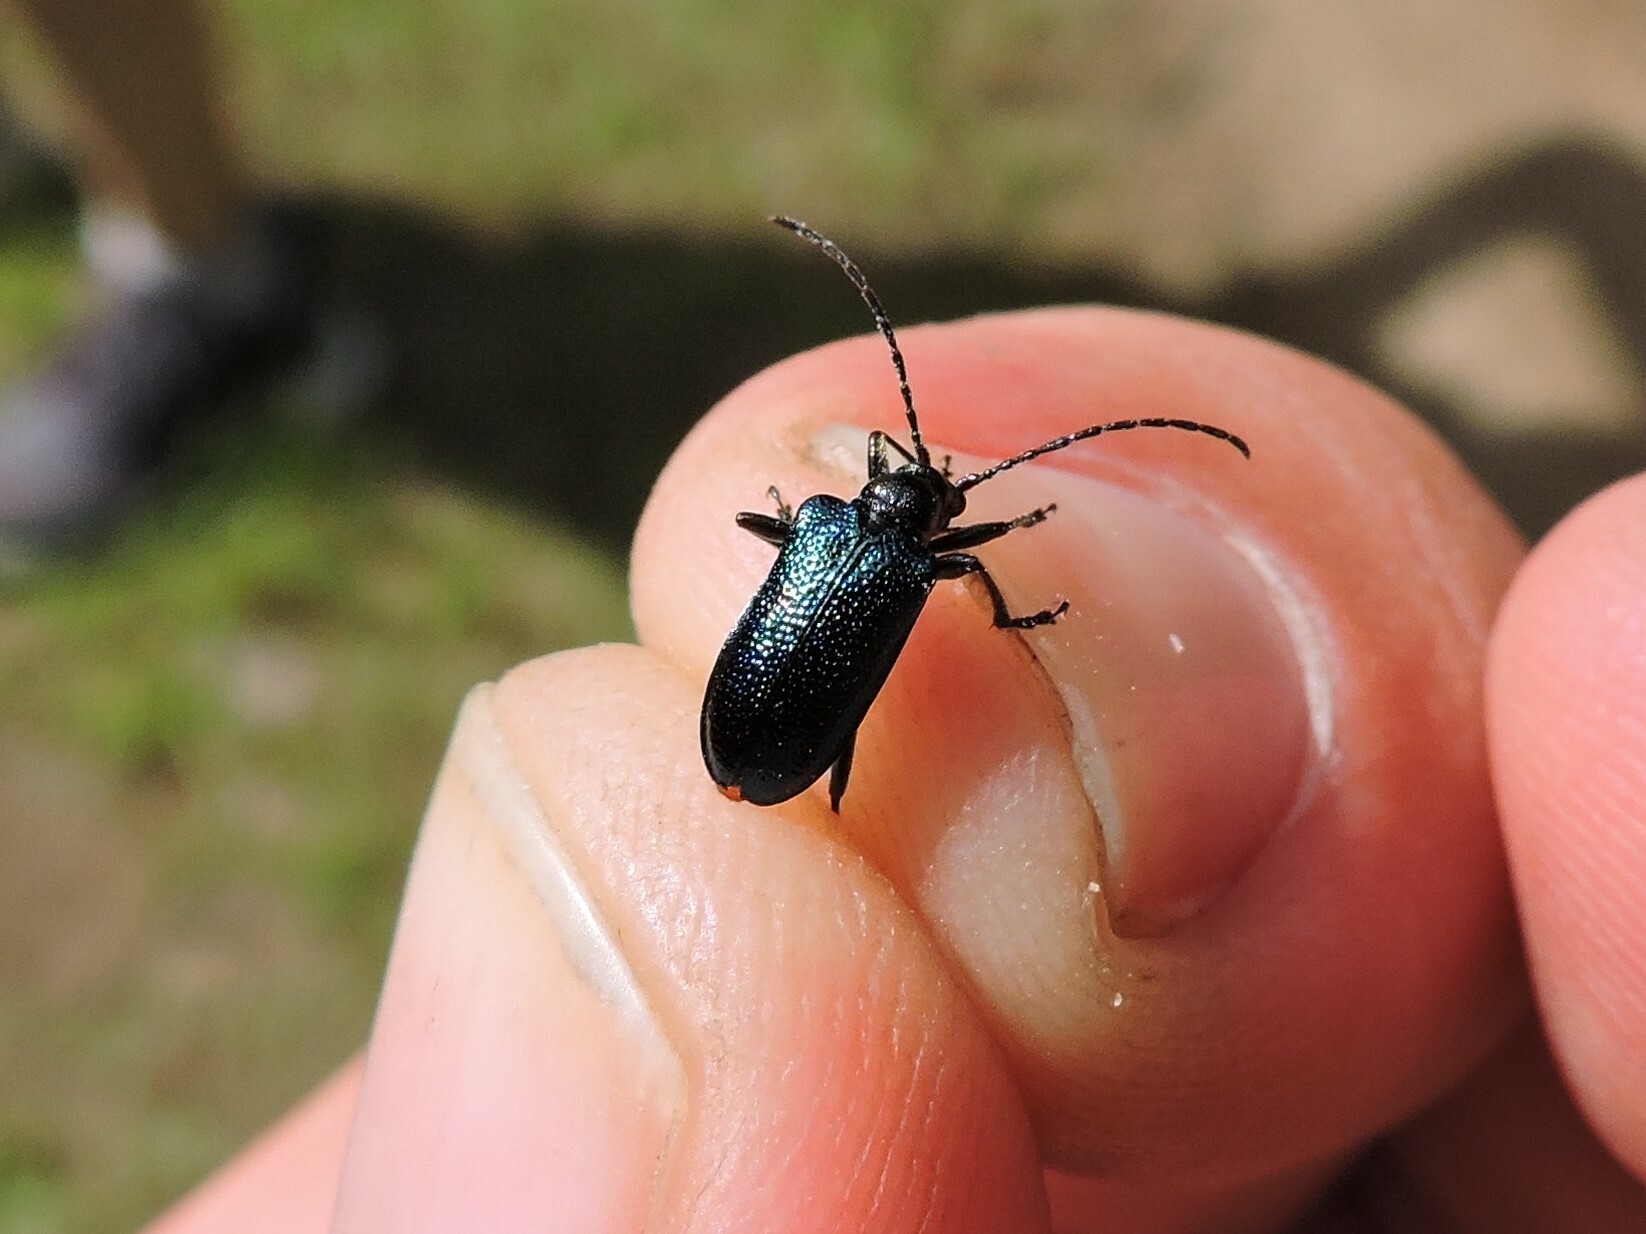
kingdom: Animalia
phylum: Arthropoda
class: Insecta
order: Coleoptera
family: Cerambycidae
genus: Gaurotes
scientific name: Gaurotes virginea
